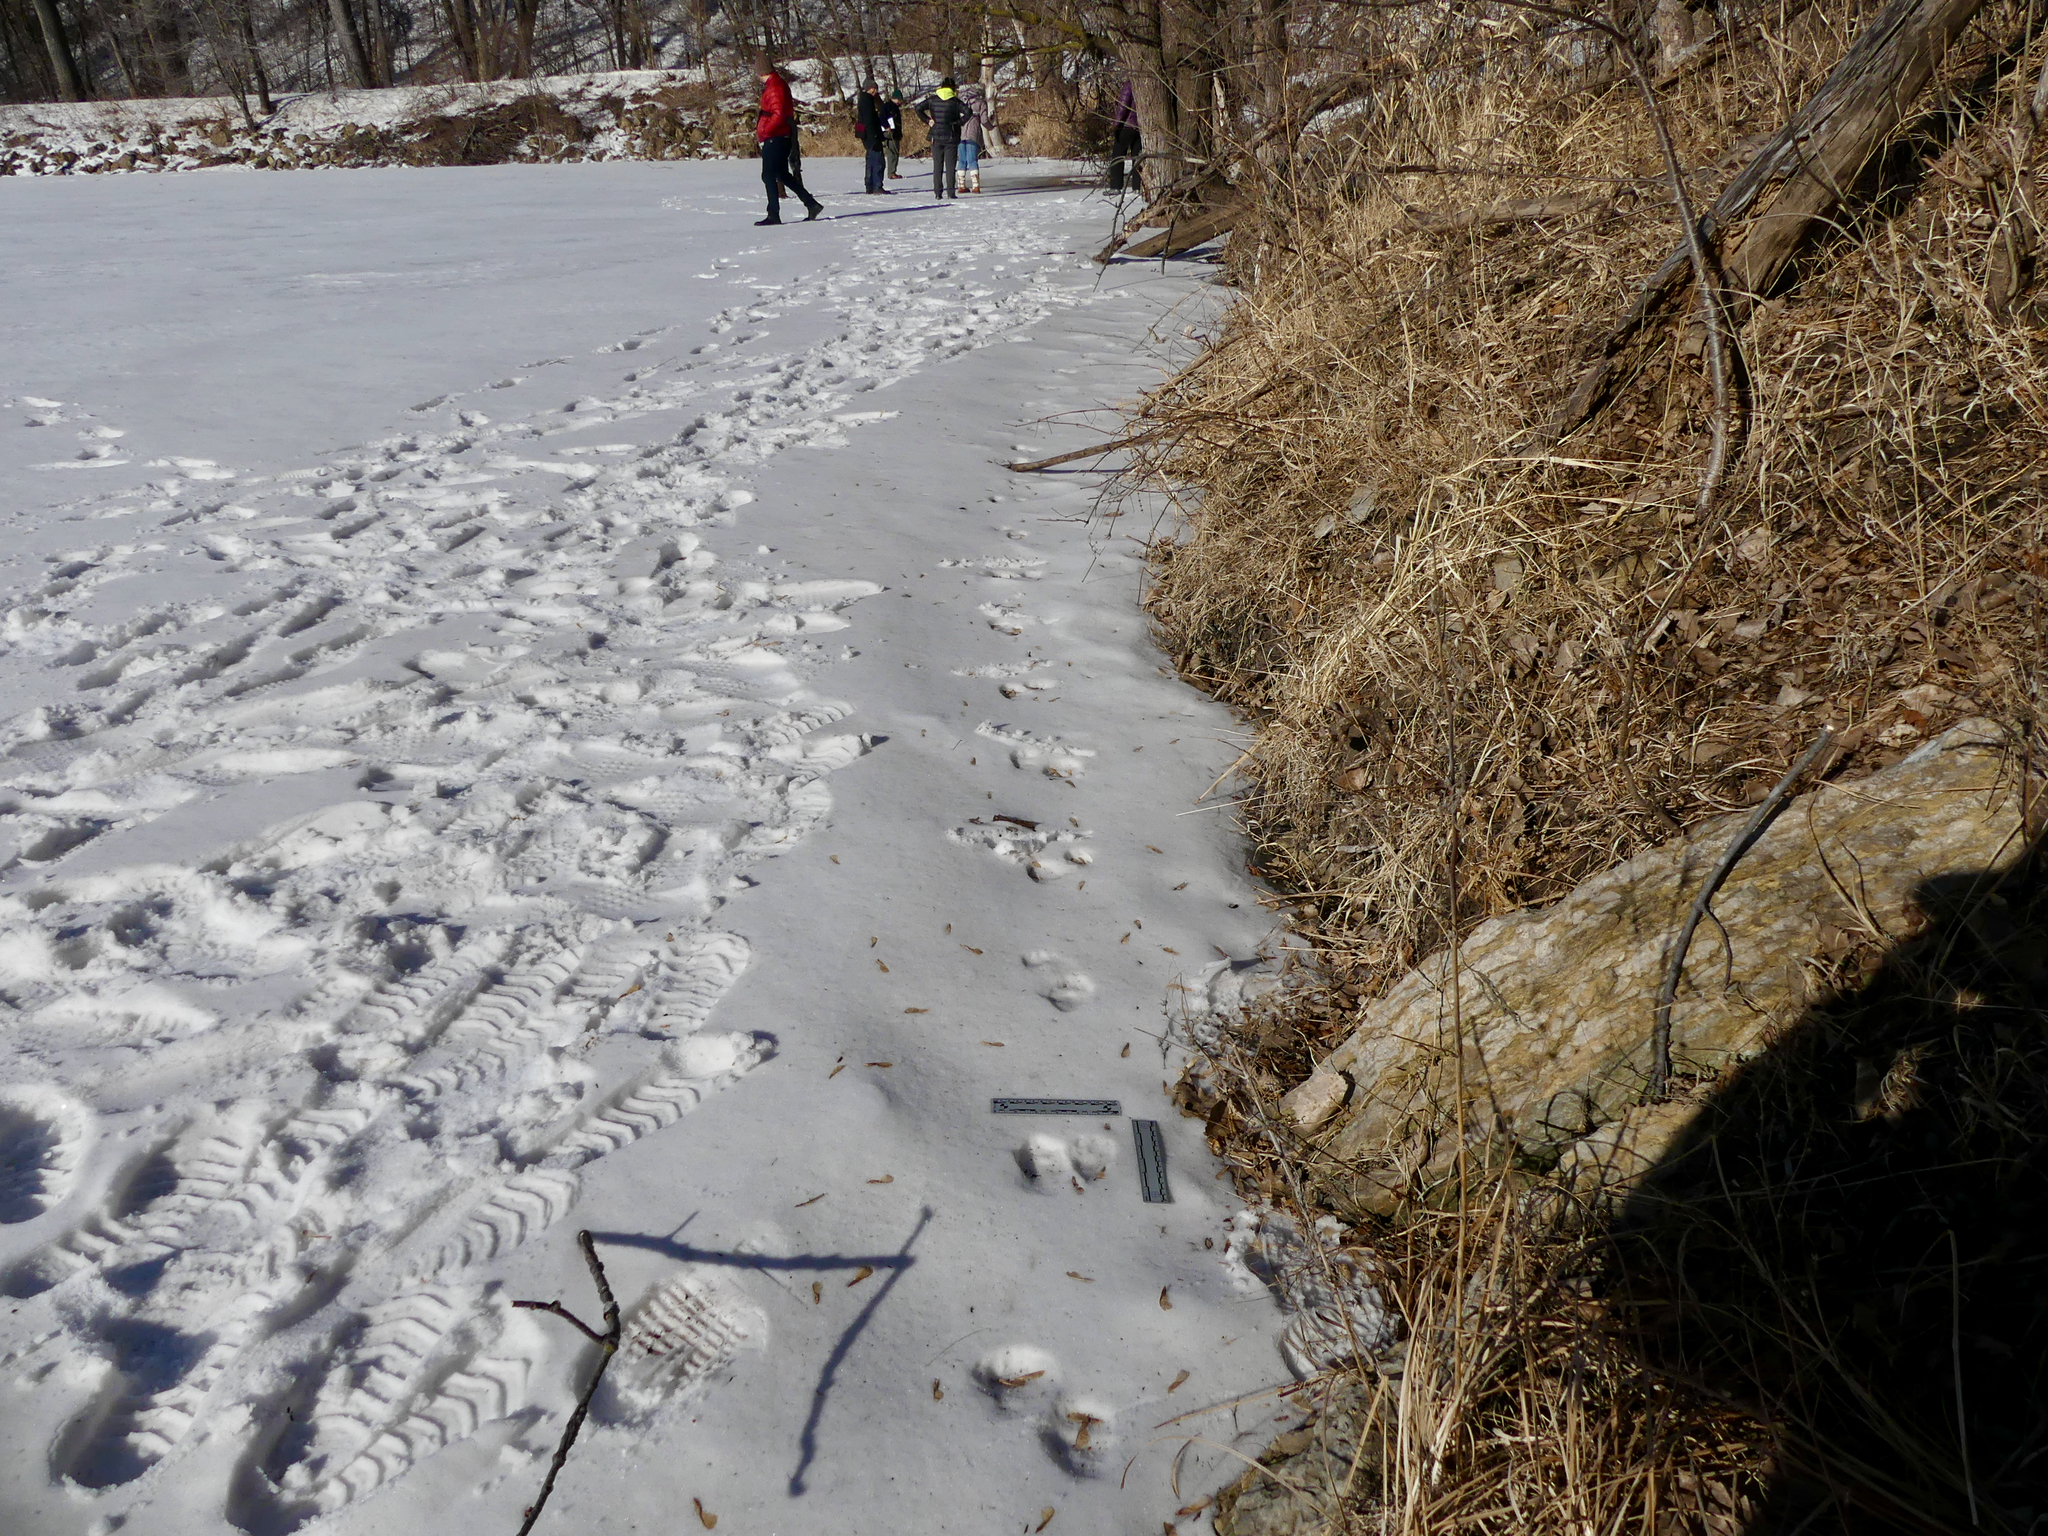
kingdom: Animalia
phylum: Chordata
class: Mammalia
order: Carnivora
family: Procyonidae
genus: Procyon
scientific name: Procyon lotor
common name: Raccoon
